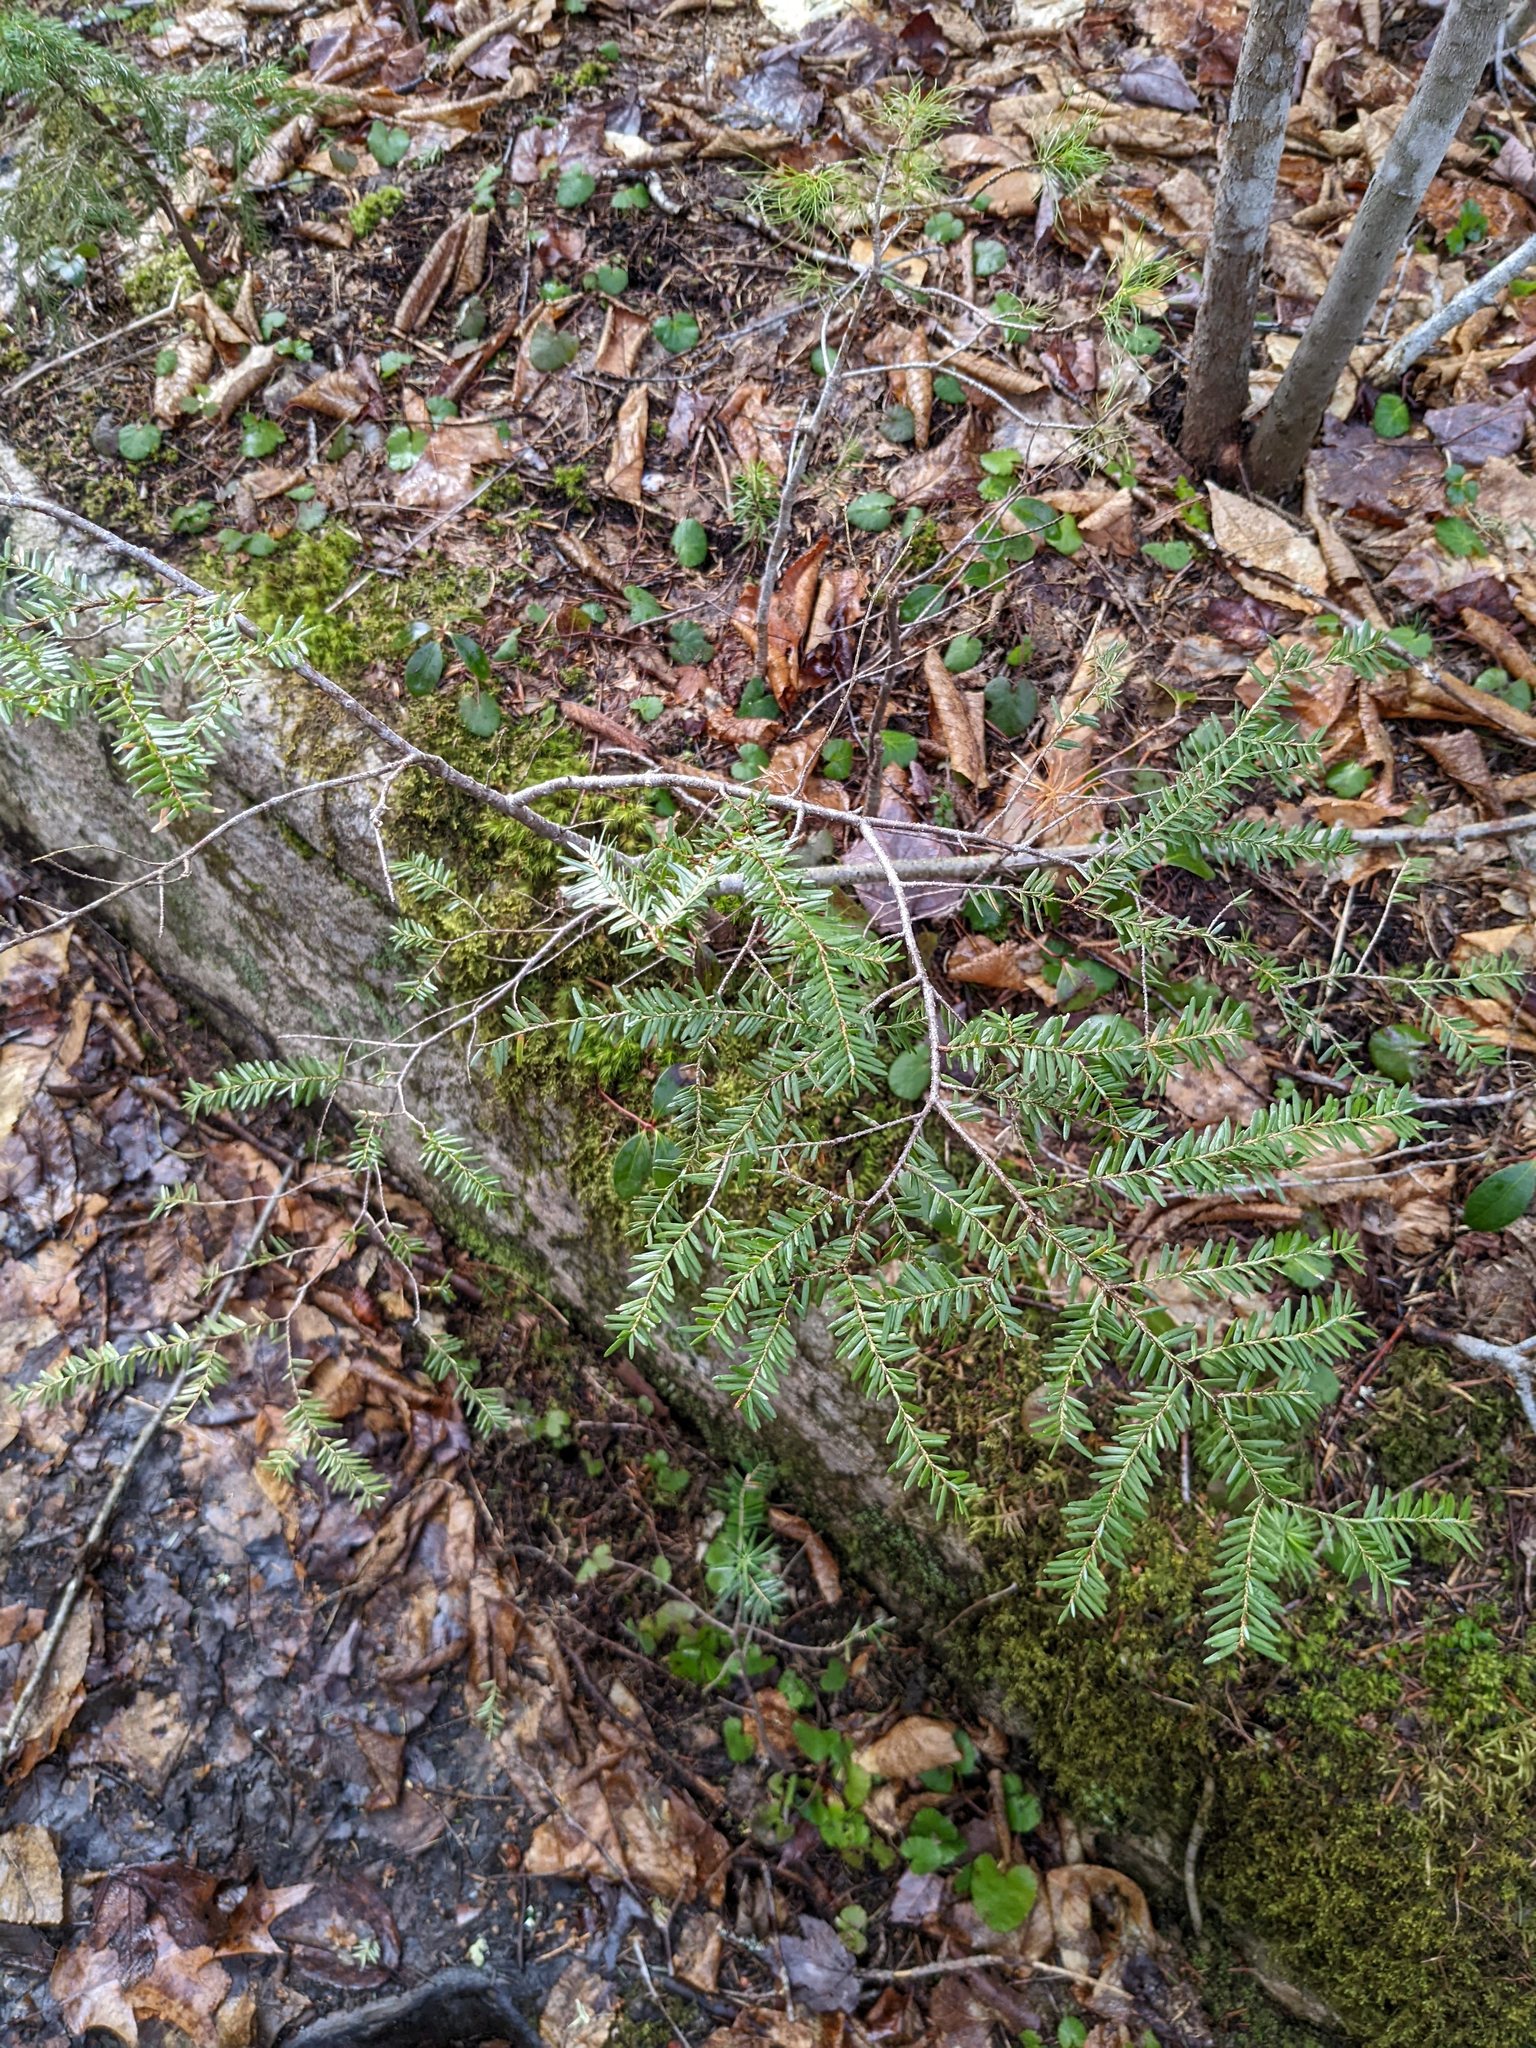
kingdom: Plantae
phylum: Tracheophyta
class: Pinopsida
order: Pinales
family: Pinaceae
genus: Tsuga
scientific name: Tsuga canadensis
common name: Eastern hemlock
